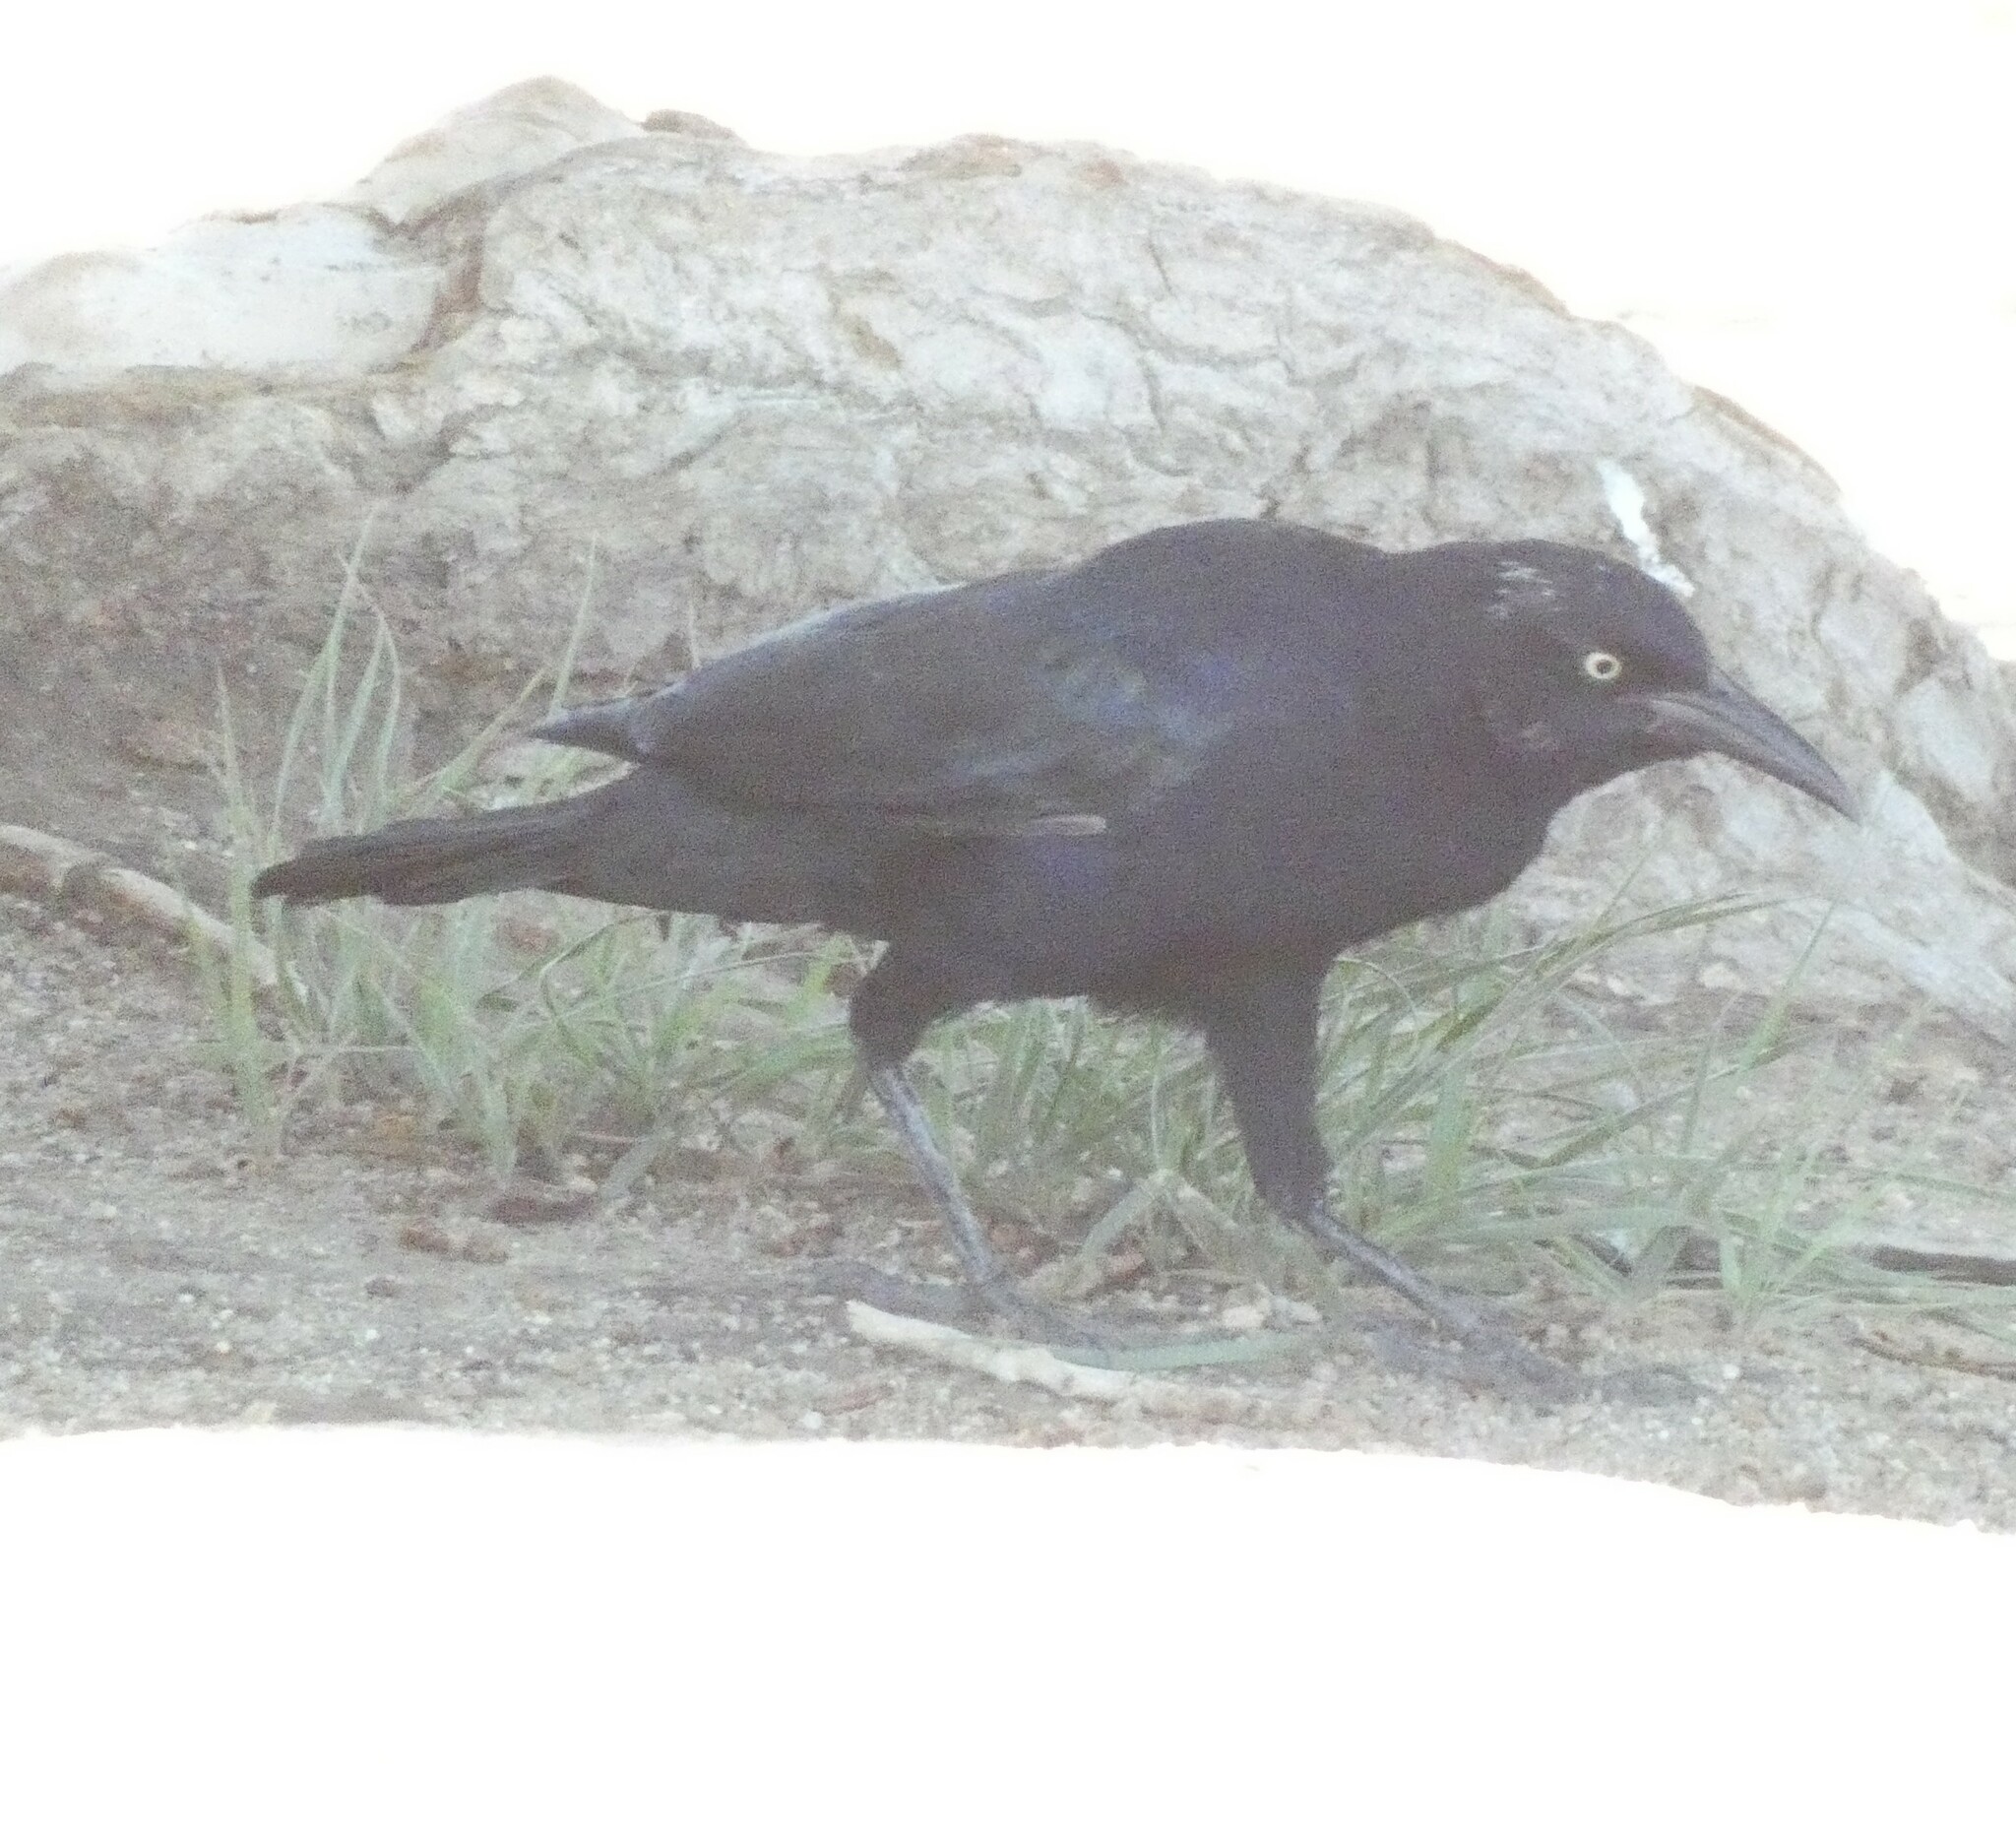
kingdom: Animalia
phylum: Chordata
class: Aves
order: Passeriformes
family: Icteridae
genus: Quiscalus
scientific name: Quiscalus mexicanus
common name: Great-tailed grackle
